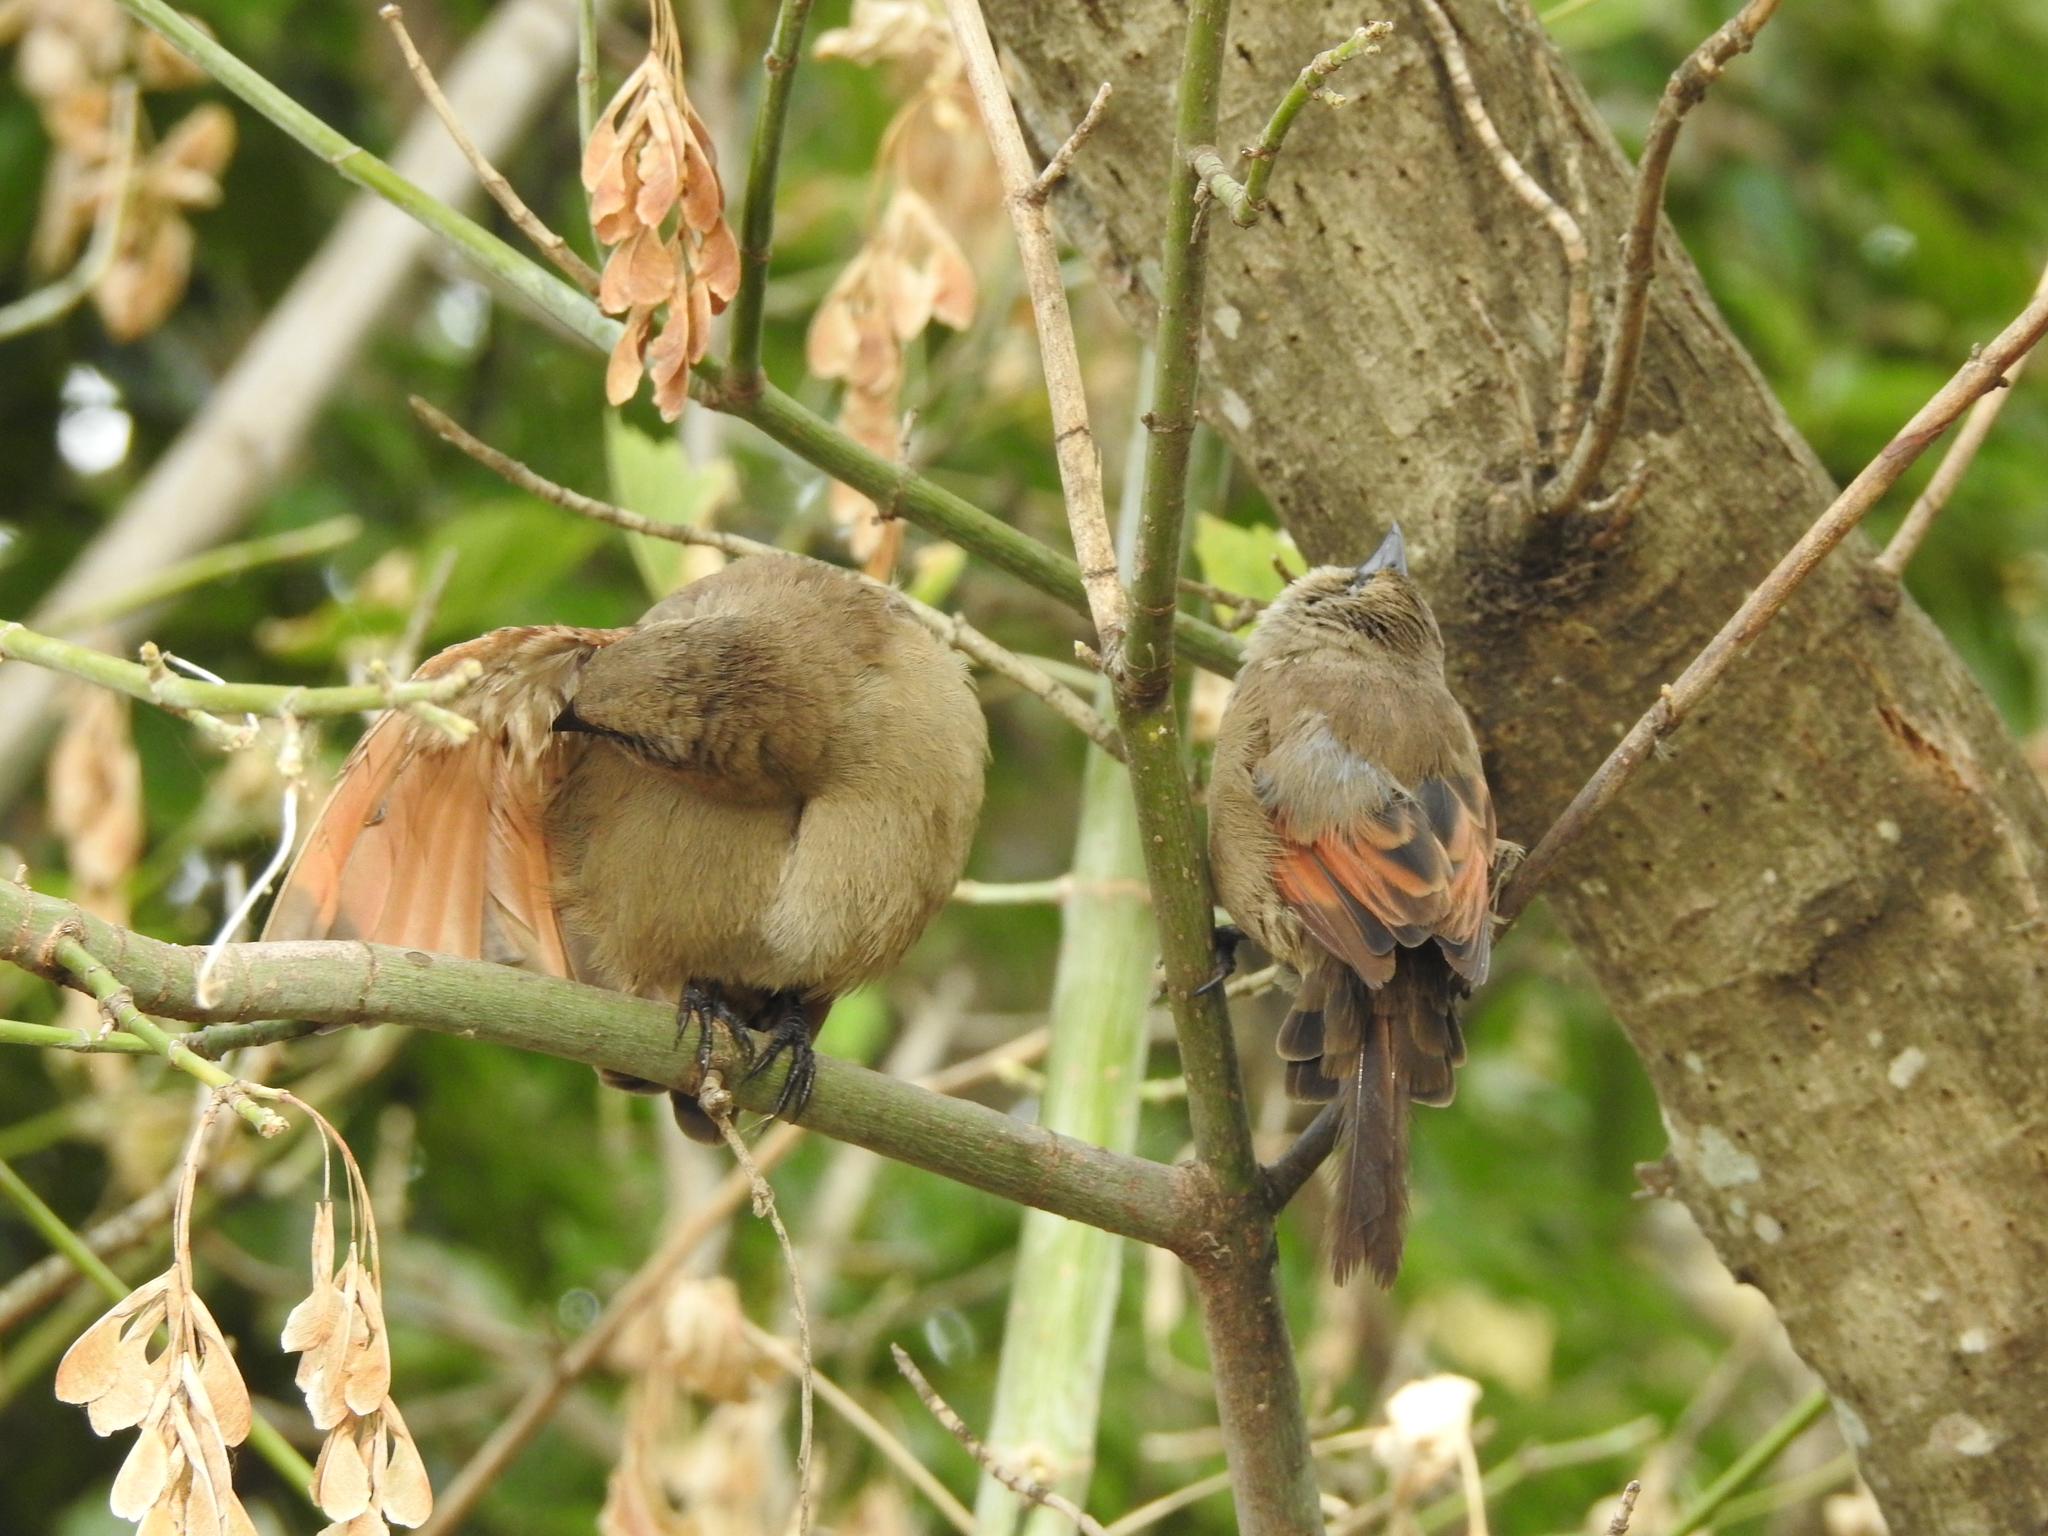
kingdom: Animalia
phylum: Chordata
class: Aves
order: Passeriformes
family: Icteridae
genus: Agelaioides
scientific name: Agelaioides badius
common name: Baywing
